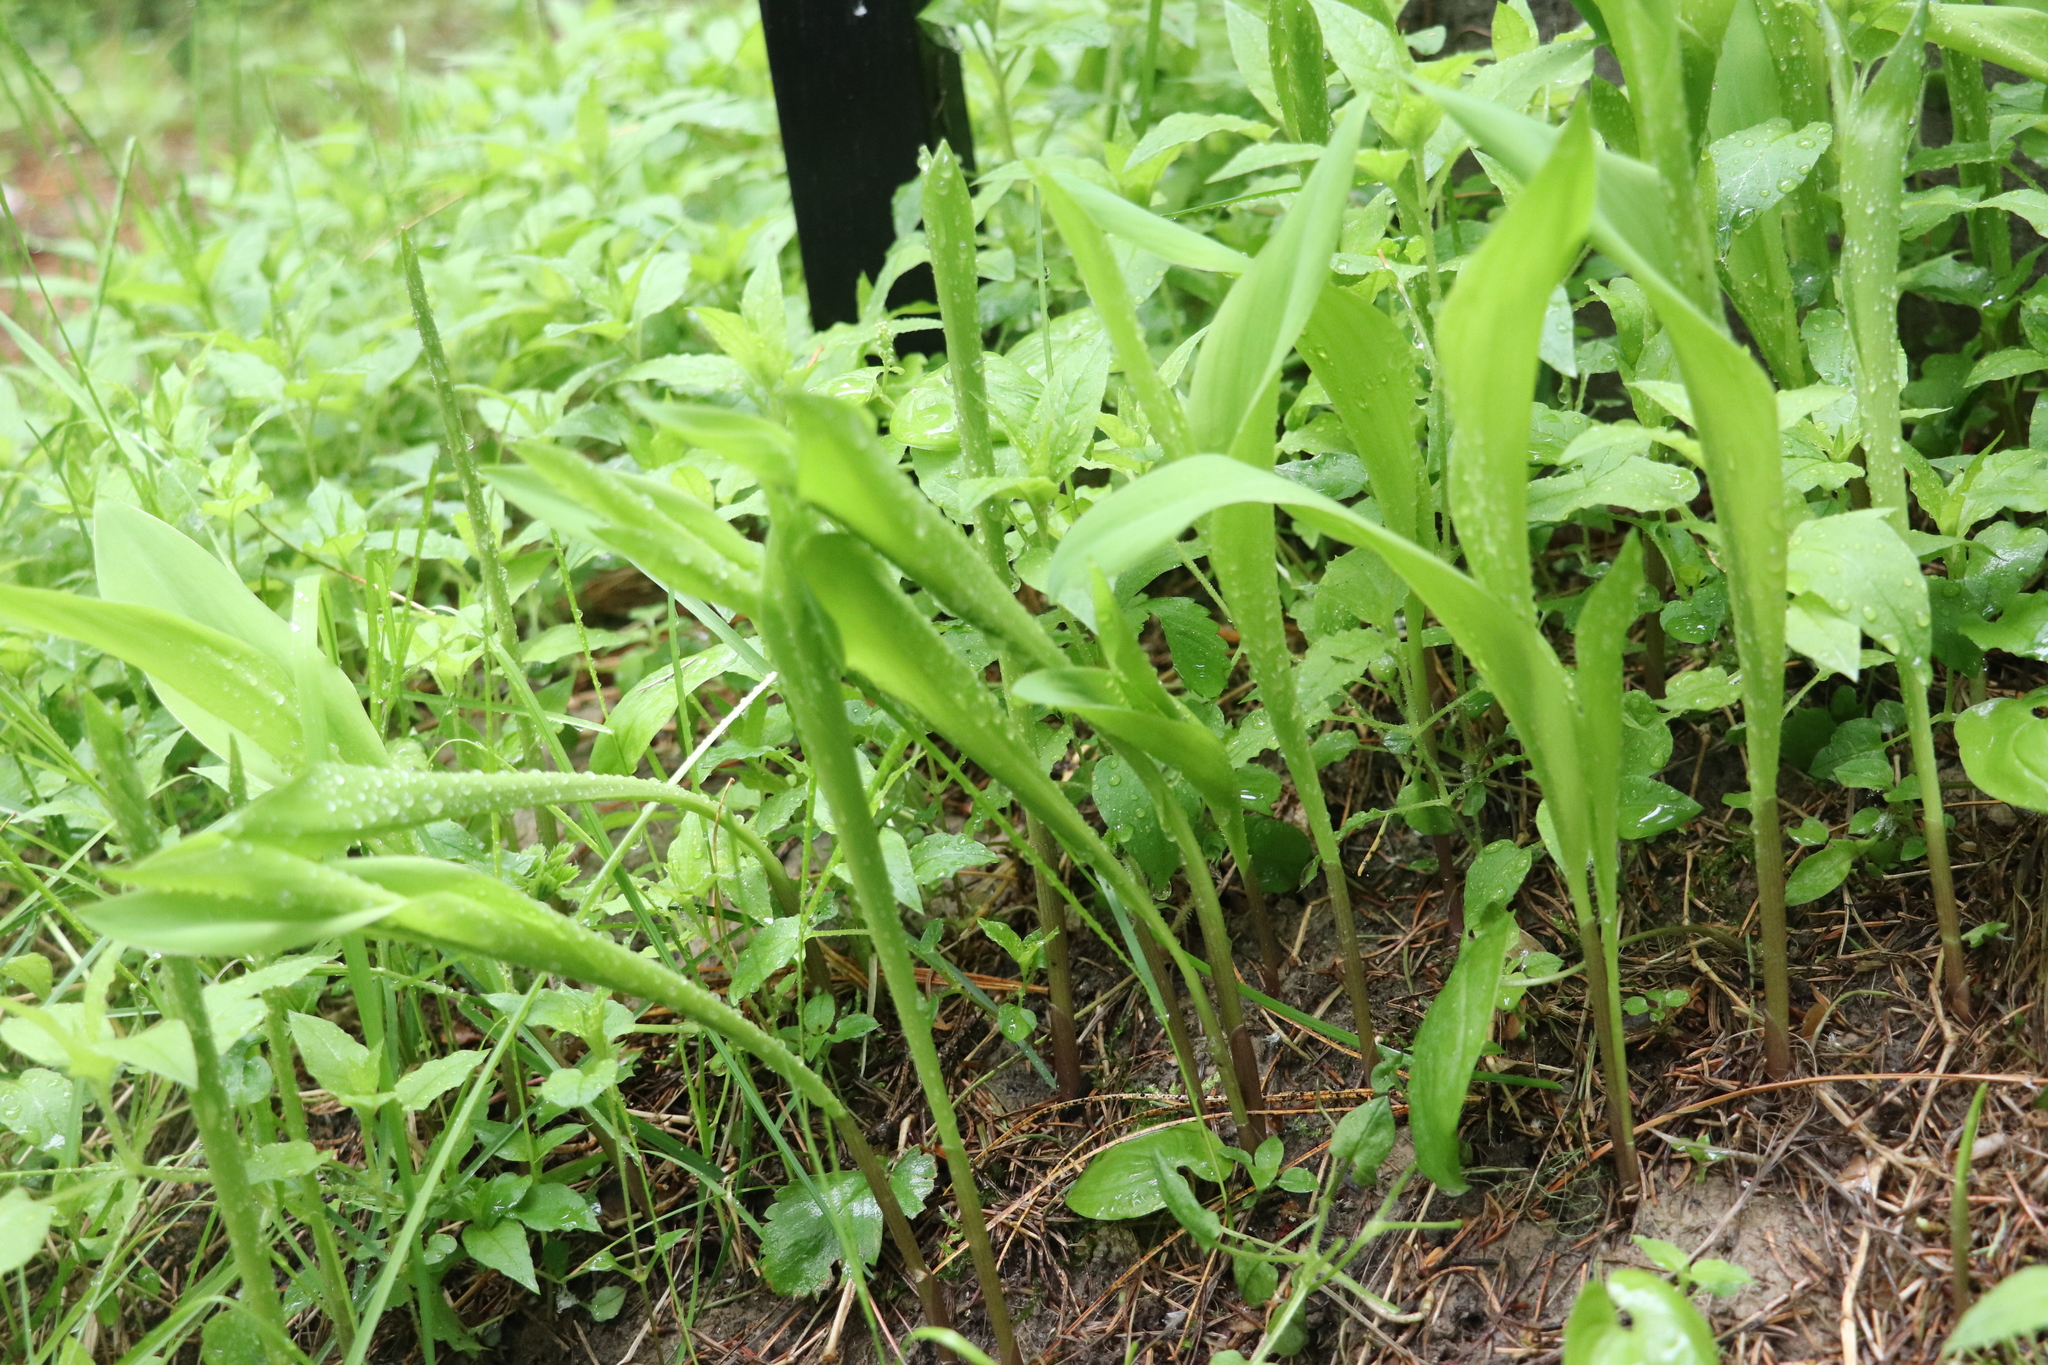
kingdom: Plantae
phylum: Tracheophyta
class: Liliopsida
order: Asparagales
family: Asparagaceae
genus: Convallaria
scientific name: Convallaria majalis
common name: Lily-of-the-valley
